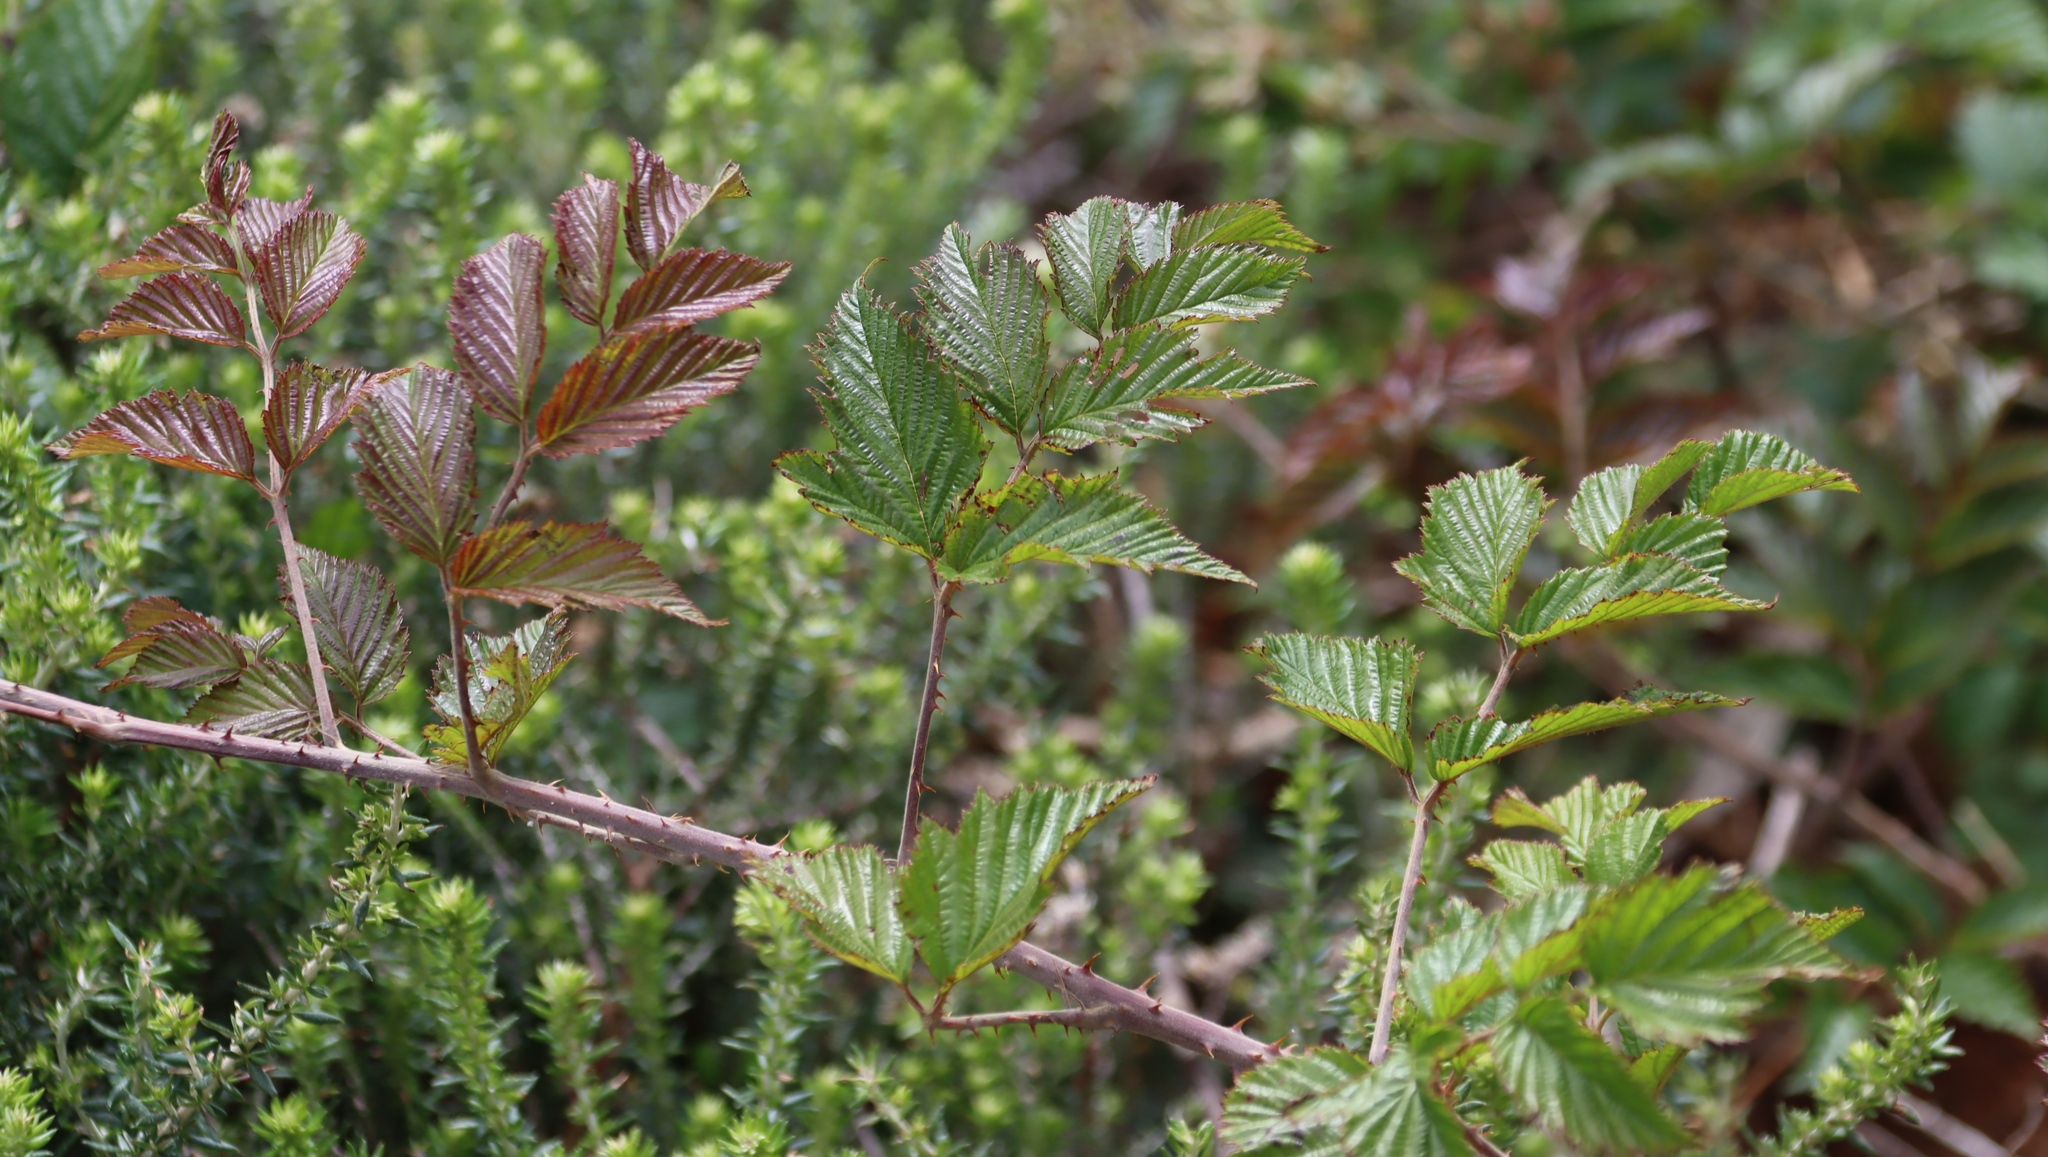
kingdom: Plantae
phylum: Tracheophyta
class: Magnoliopsida
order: Rosales
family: Rosaceae
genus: Rubus
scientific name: Rubus pinnatus
